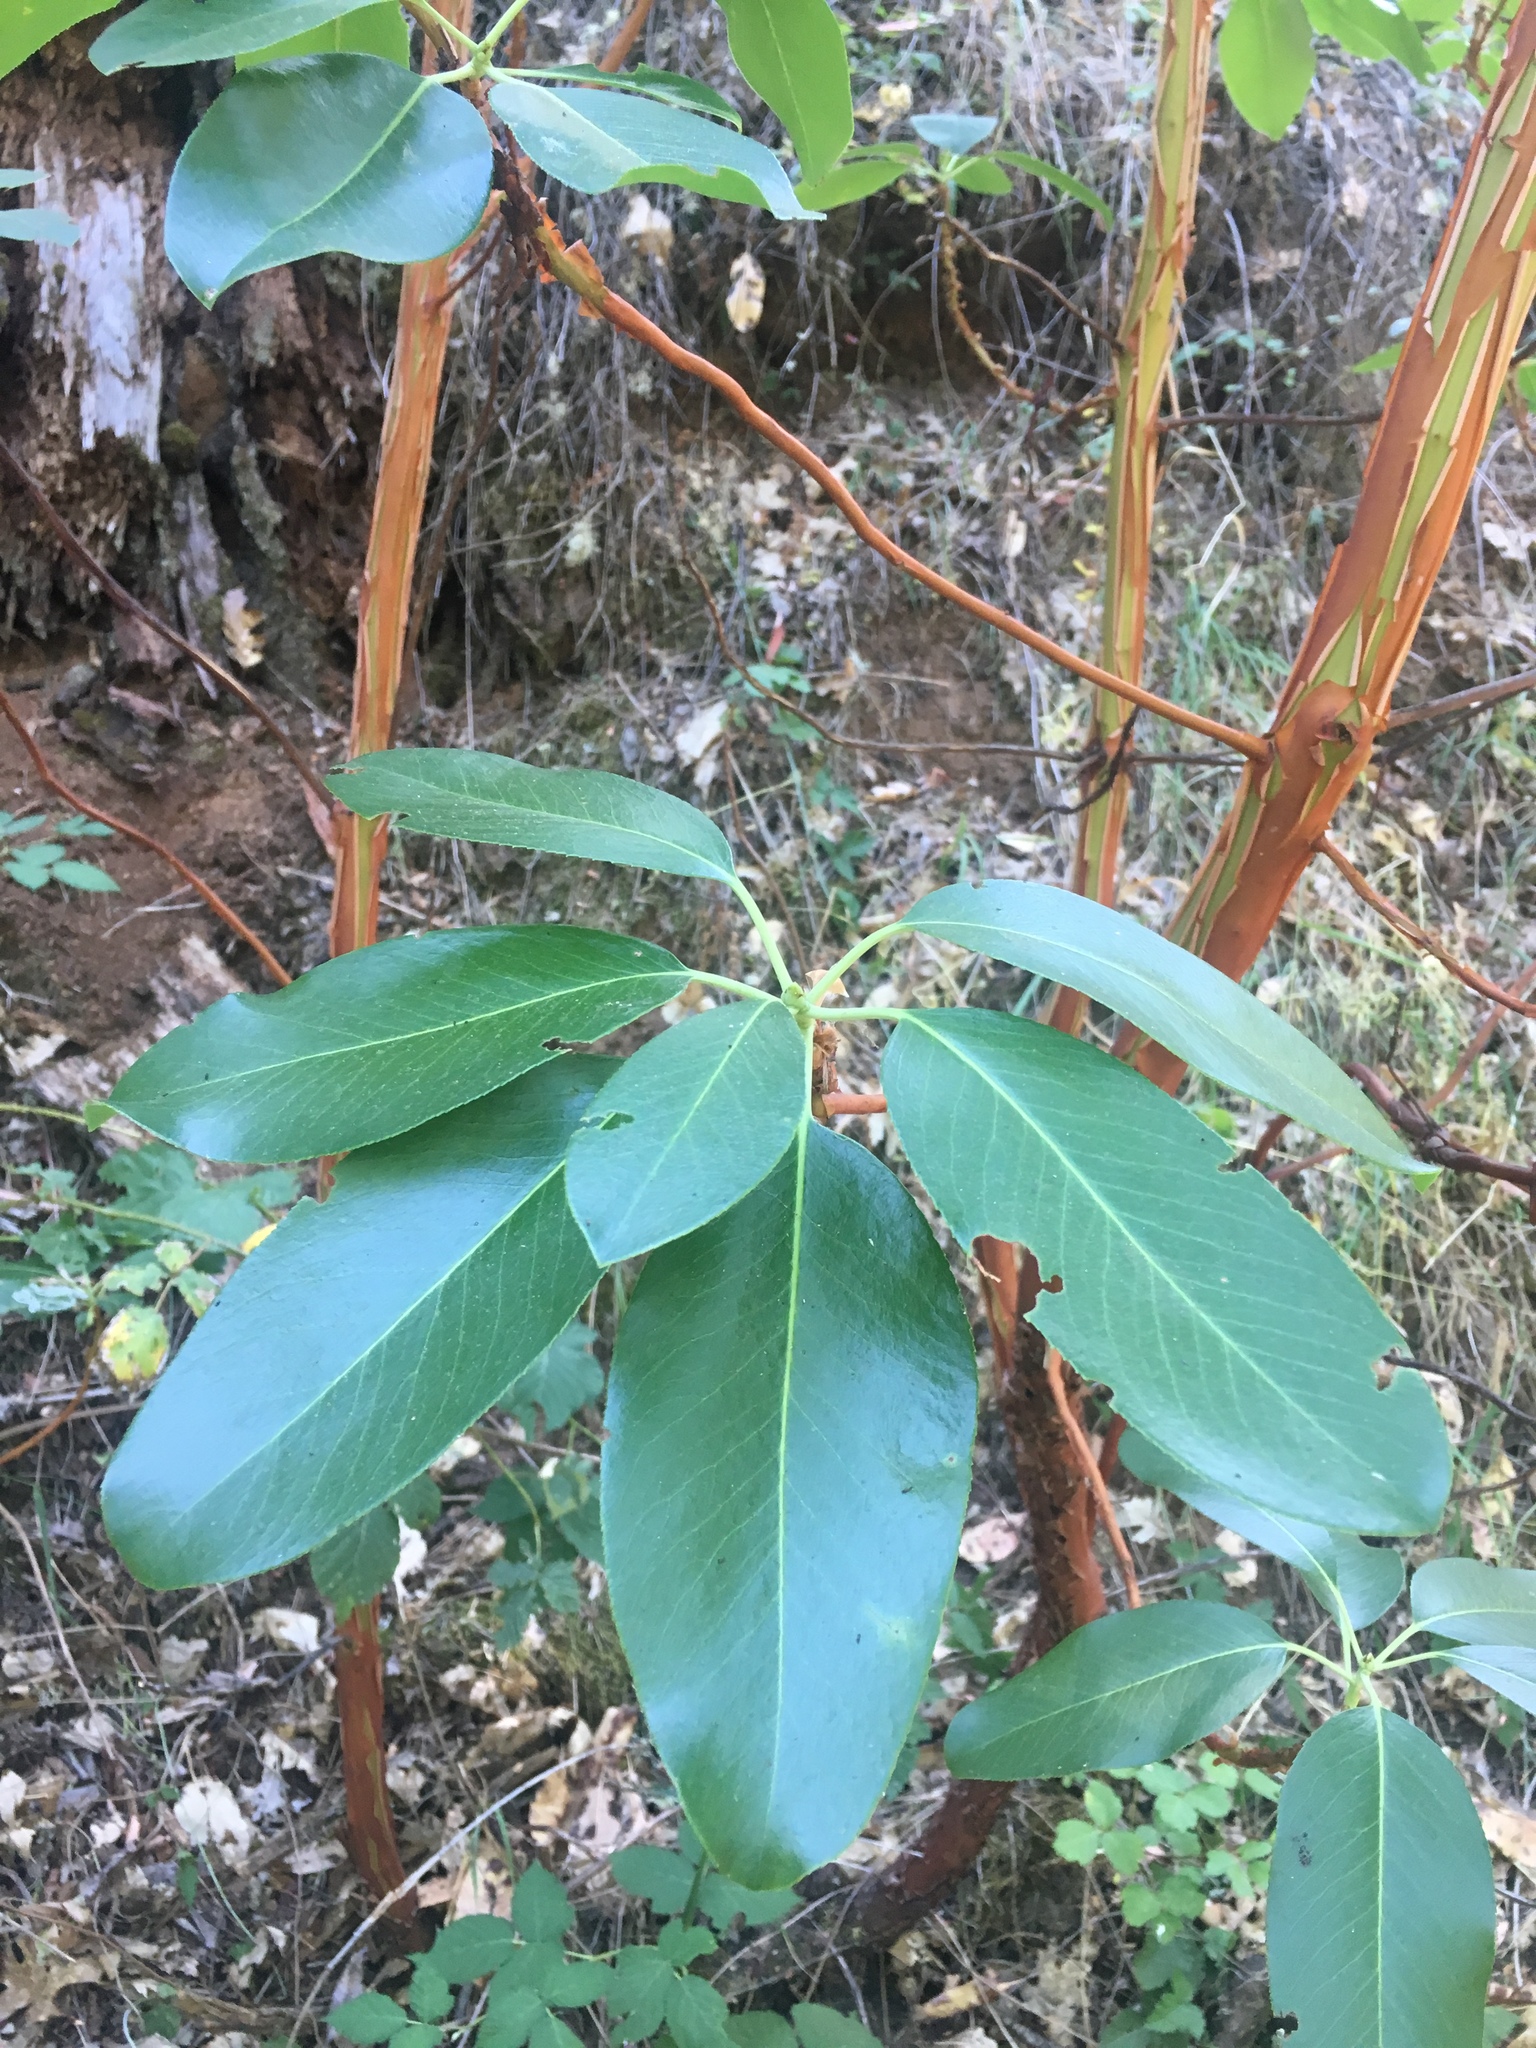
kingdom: Plantae
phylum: Tracheophyta
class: Magnoliopsida
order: Ericales
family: Ericaceae
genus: Arbutus
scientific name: Arbutus menziesii
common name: Pacific madrone
